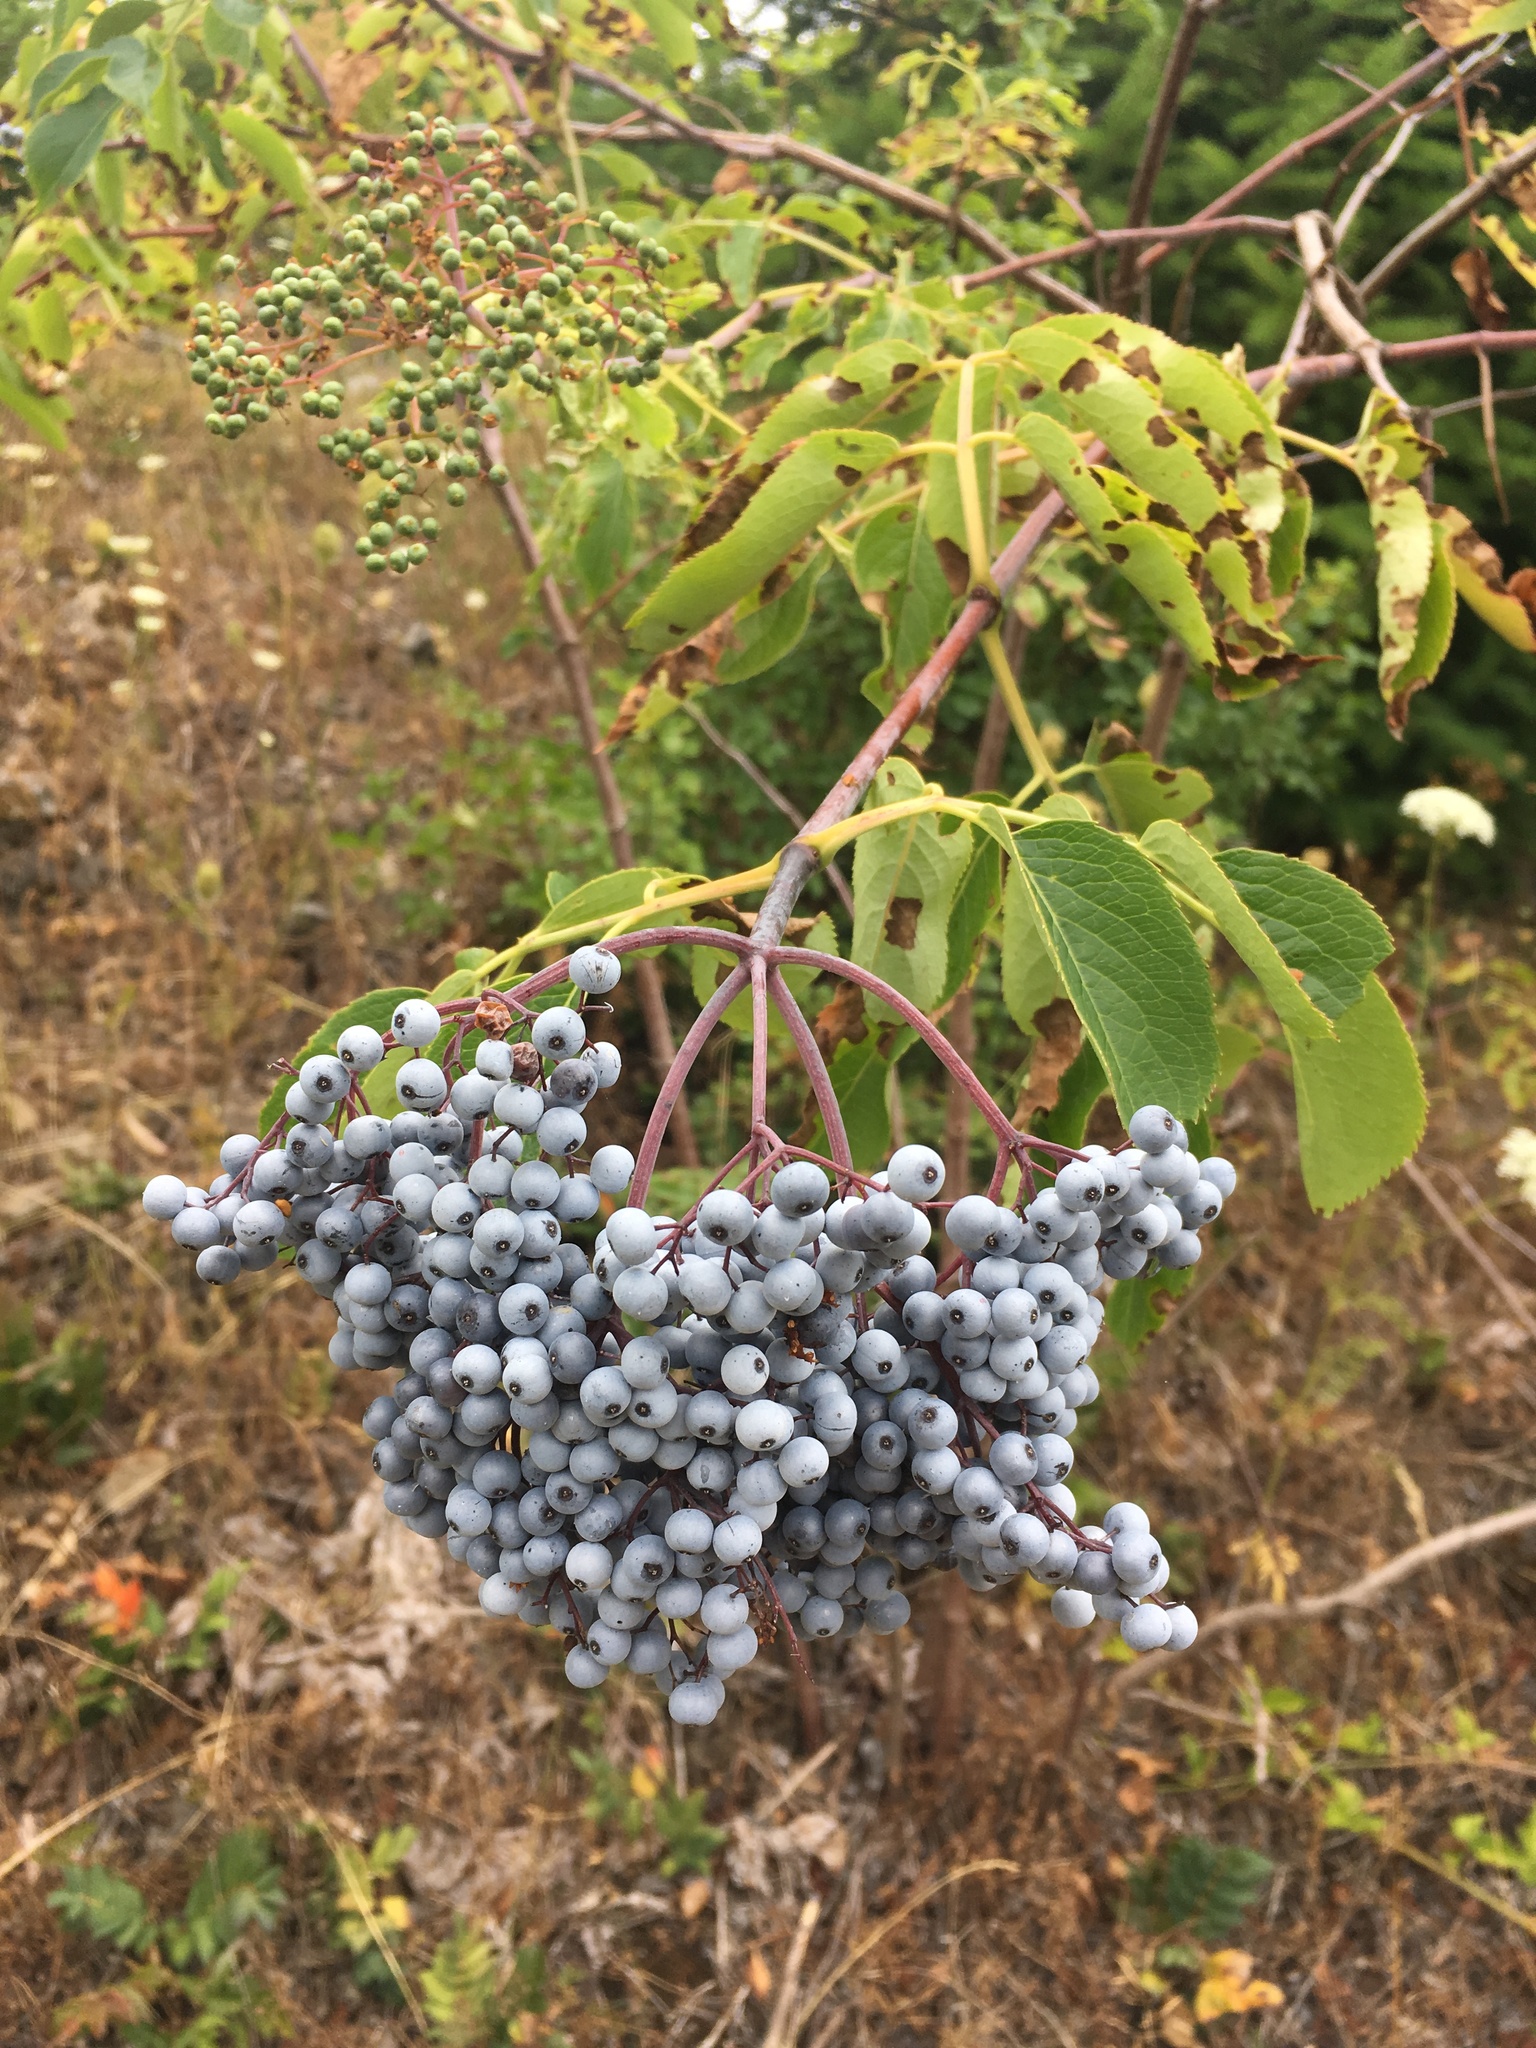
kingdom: Plantae
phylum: Tracheophyta
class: Magnoliopsida
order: Dipsacales
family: Viburnaceae
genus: Sambucus
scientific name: Sambucus cerulea
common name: Blue elder
